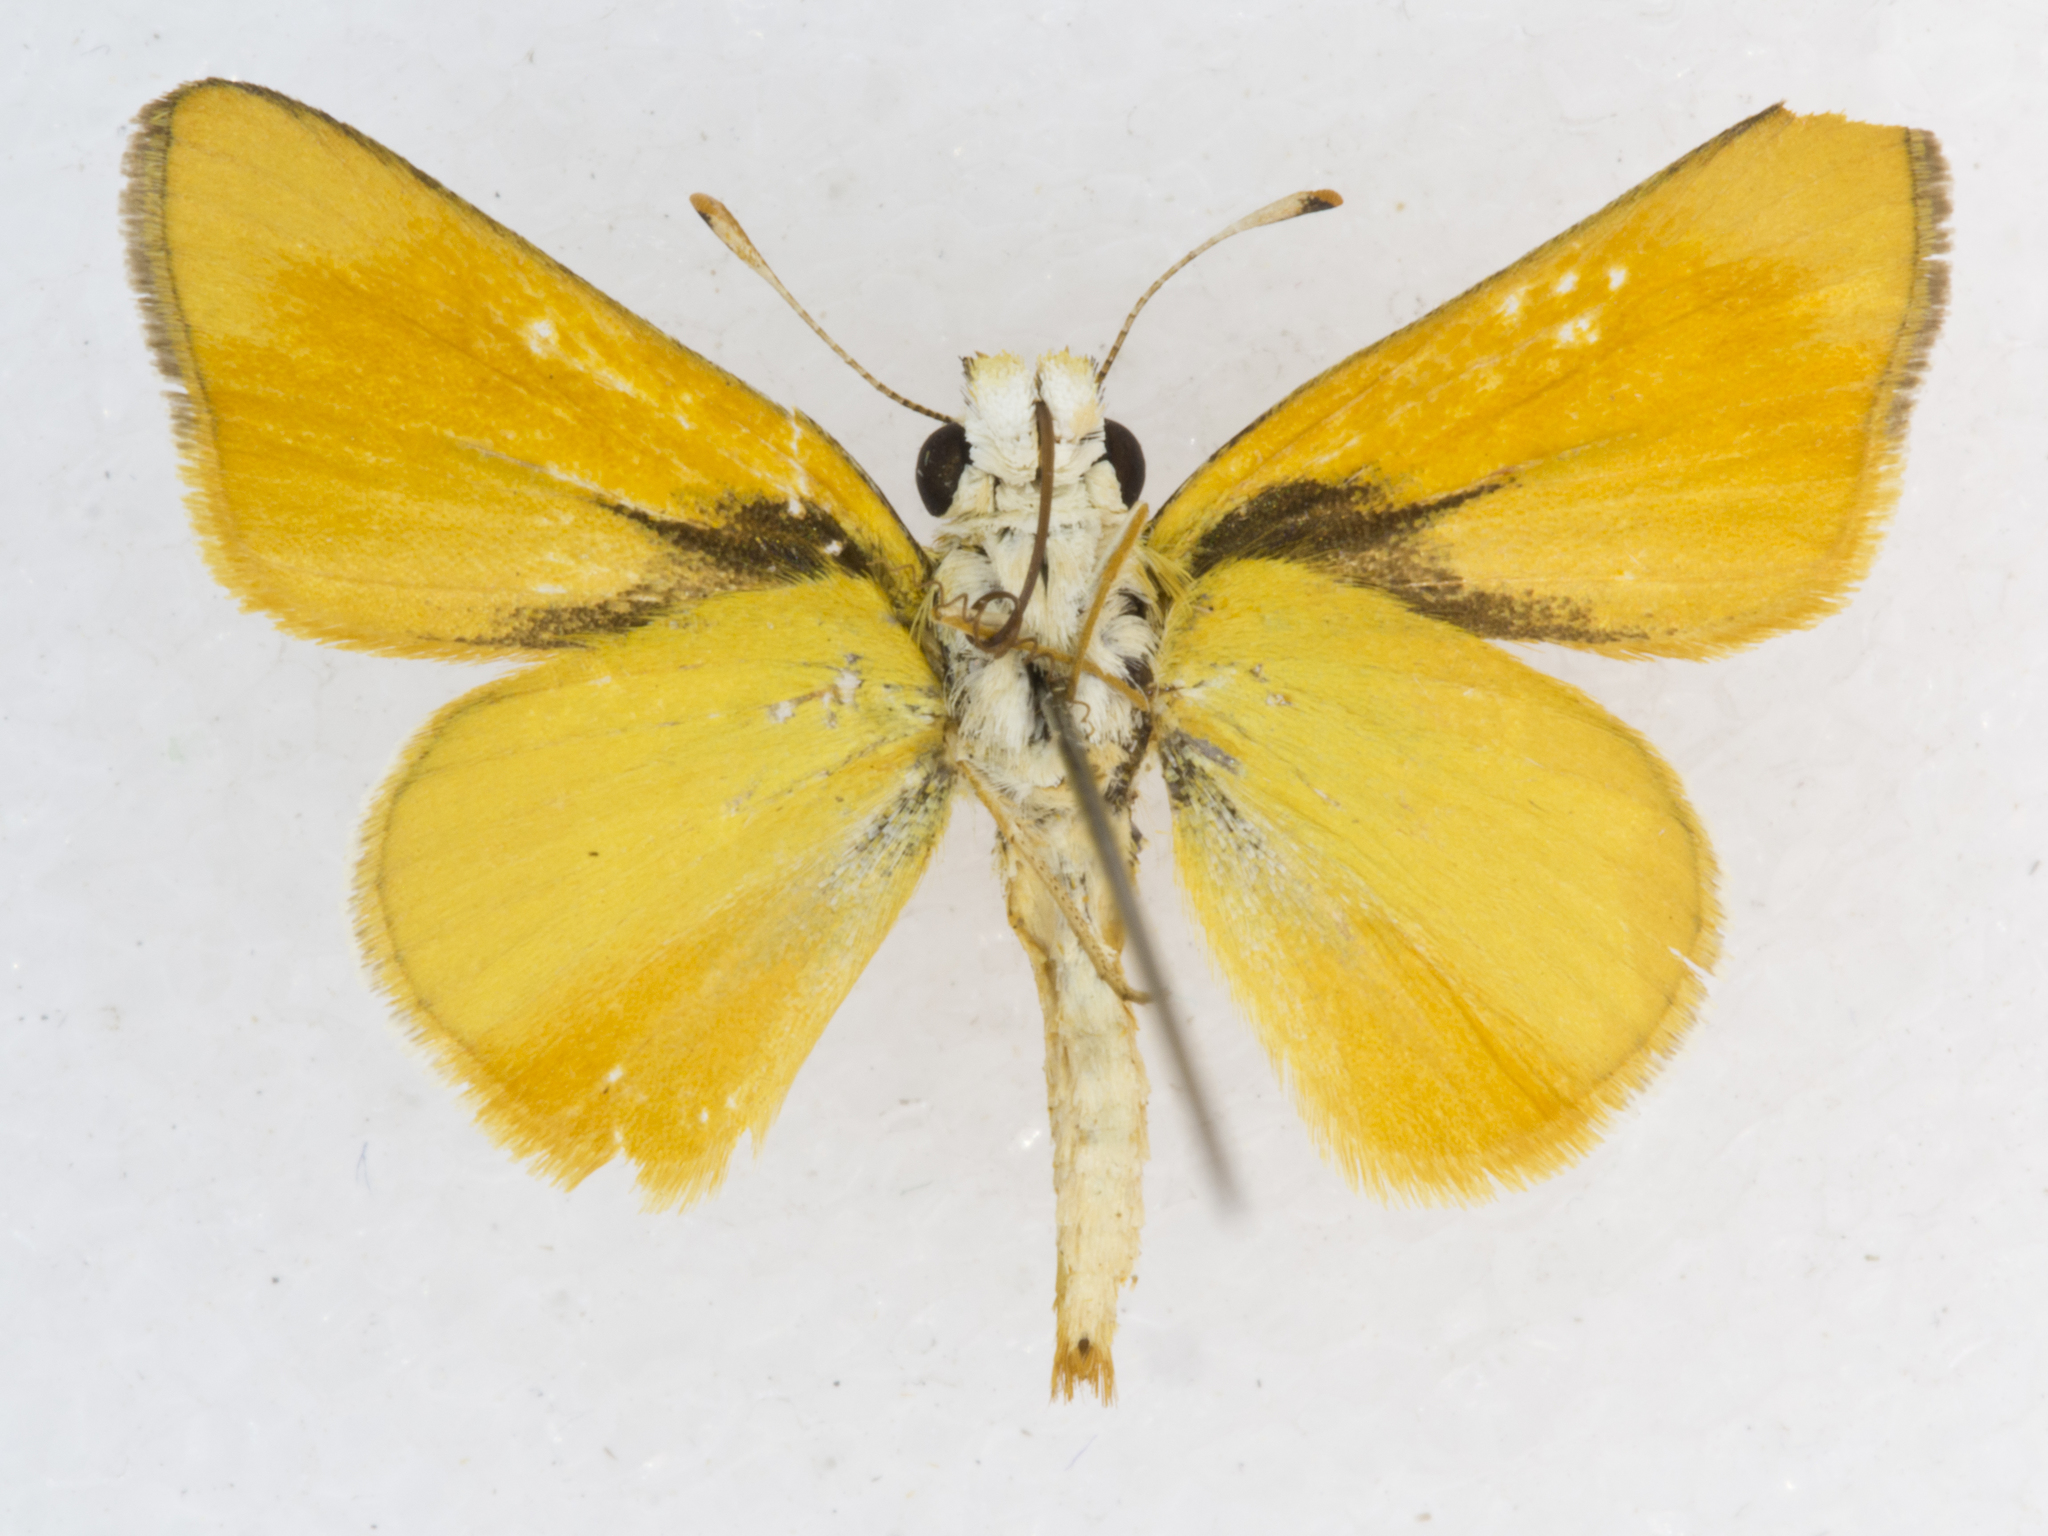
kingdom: Animalia
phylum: Arthropoda
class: Insecta
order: Lepidoptera
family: Hesperiidae
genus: Copaeodes
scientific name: Copaeodes aurantiaca
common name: Orange skipperling
